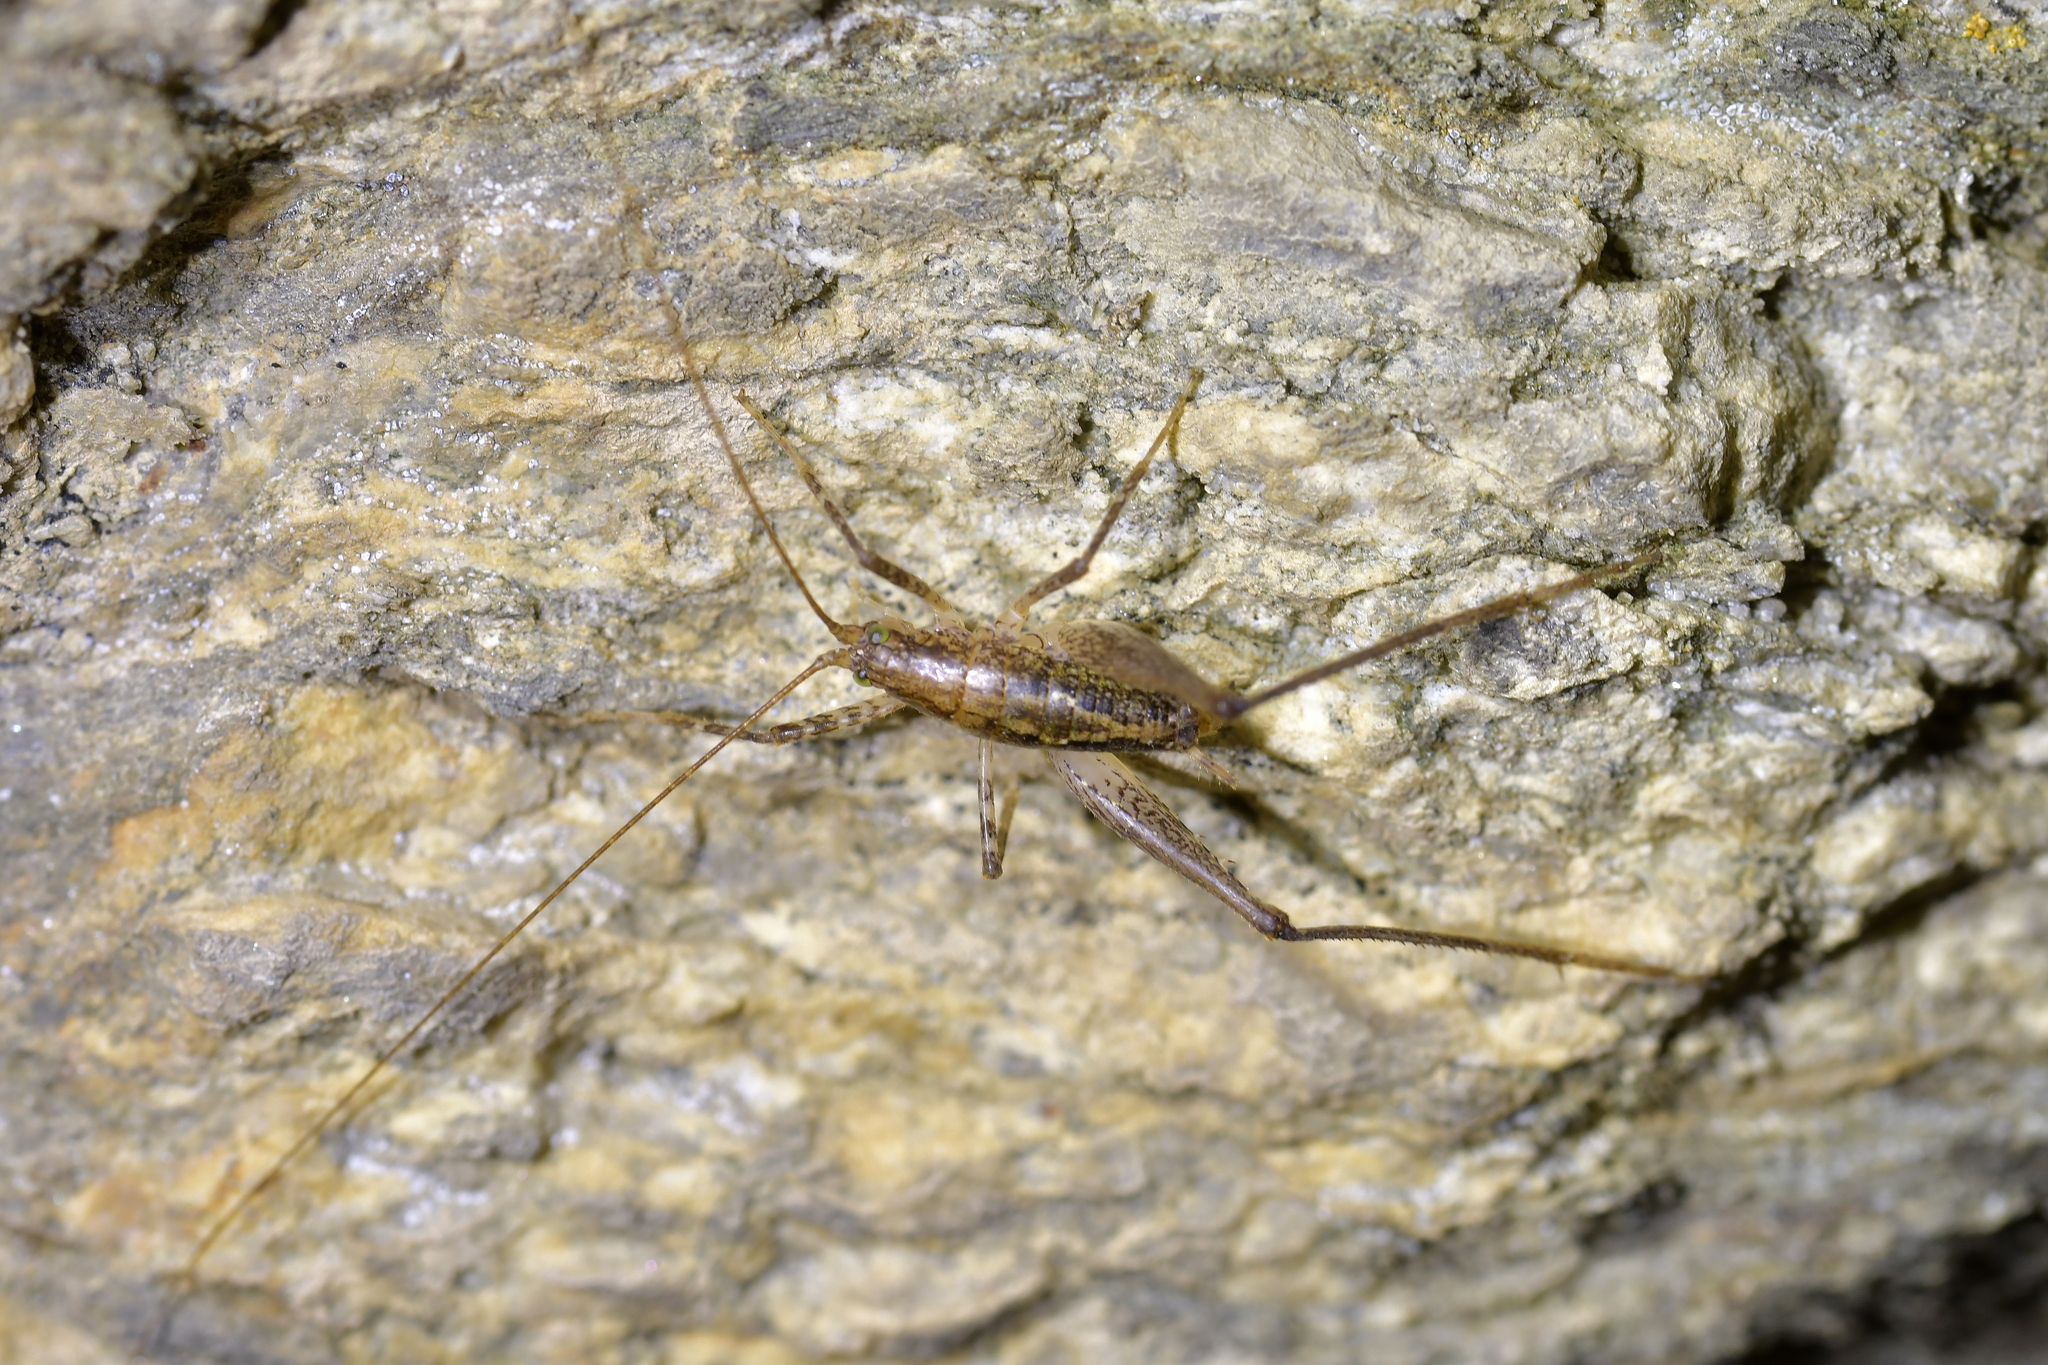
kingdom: Animalia
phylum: Arthropoda
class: Insecta
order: Orthoptera
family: Rhaphidophoridae
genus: Setascutum
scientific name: Setascutum pallidum
